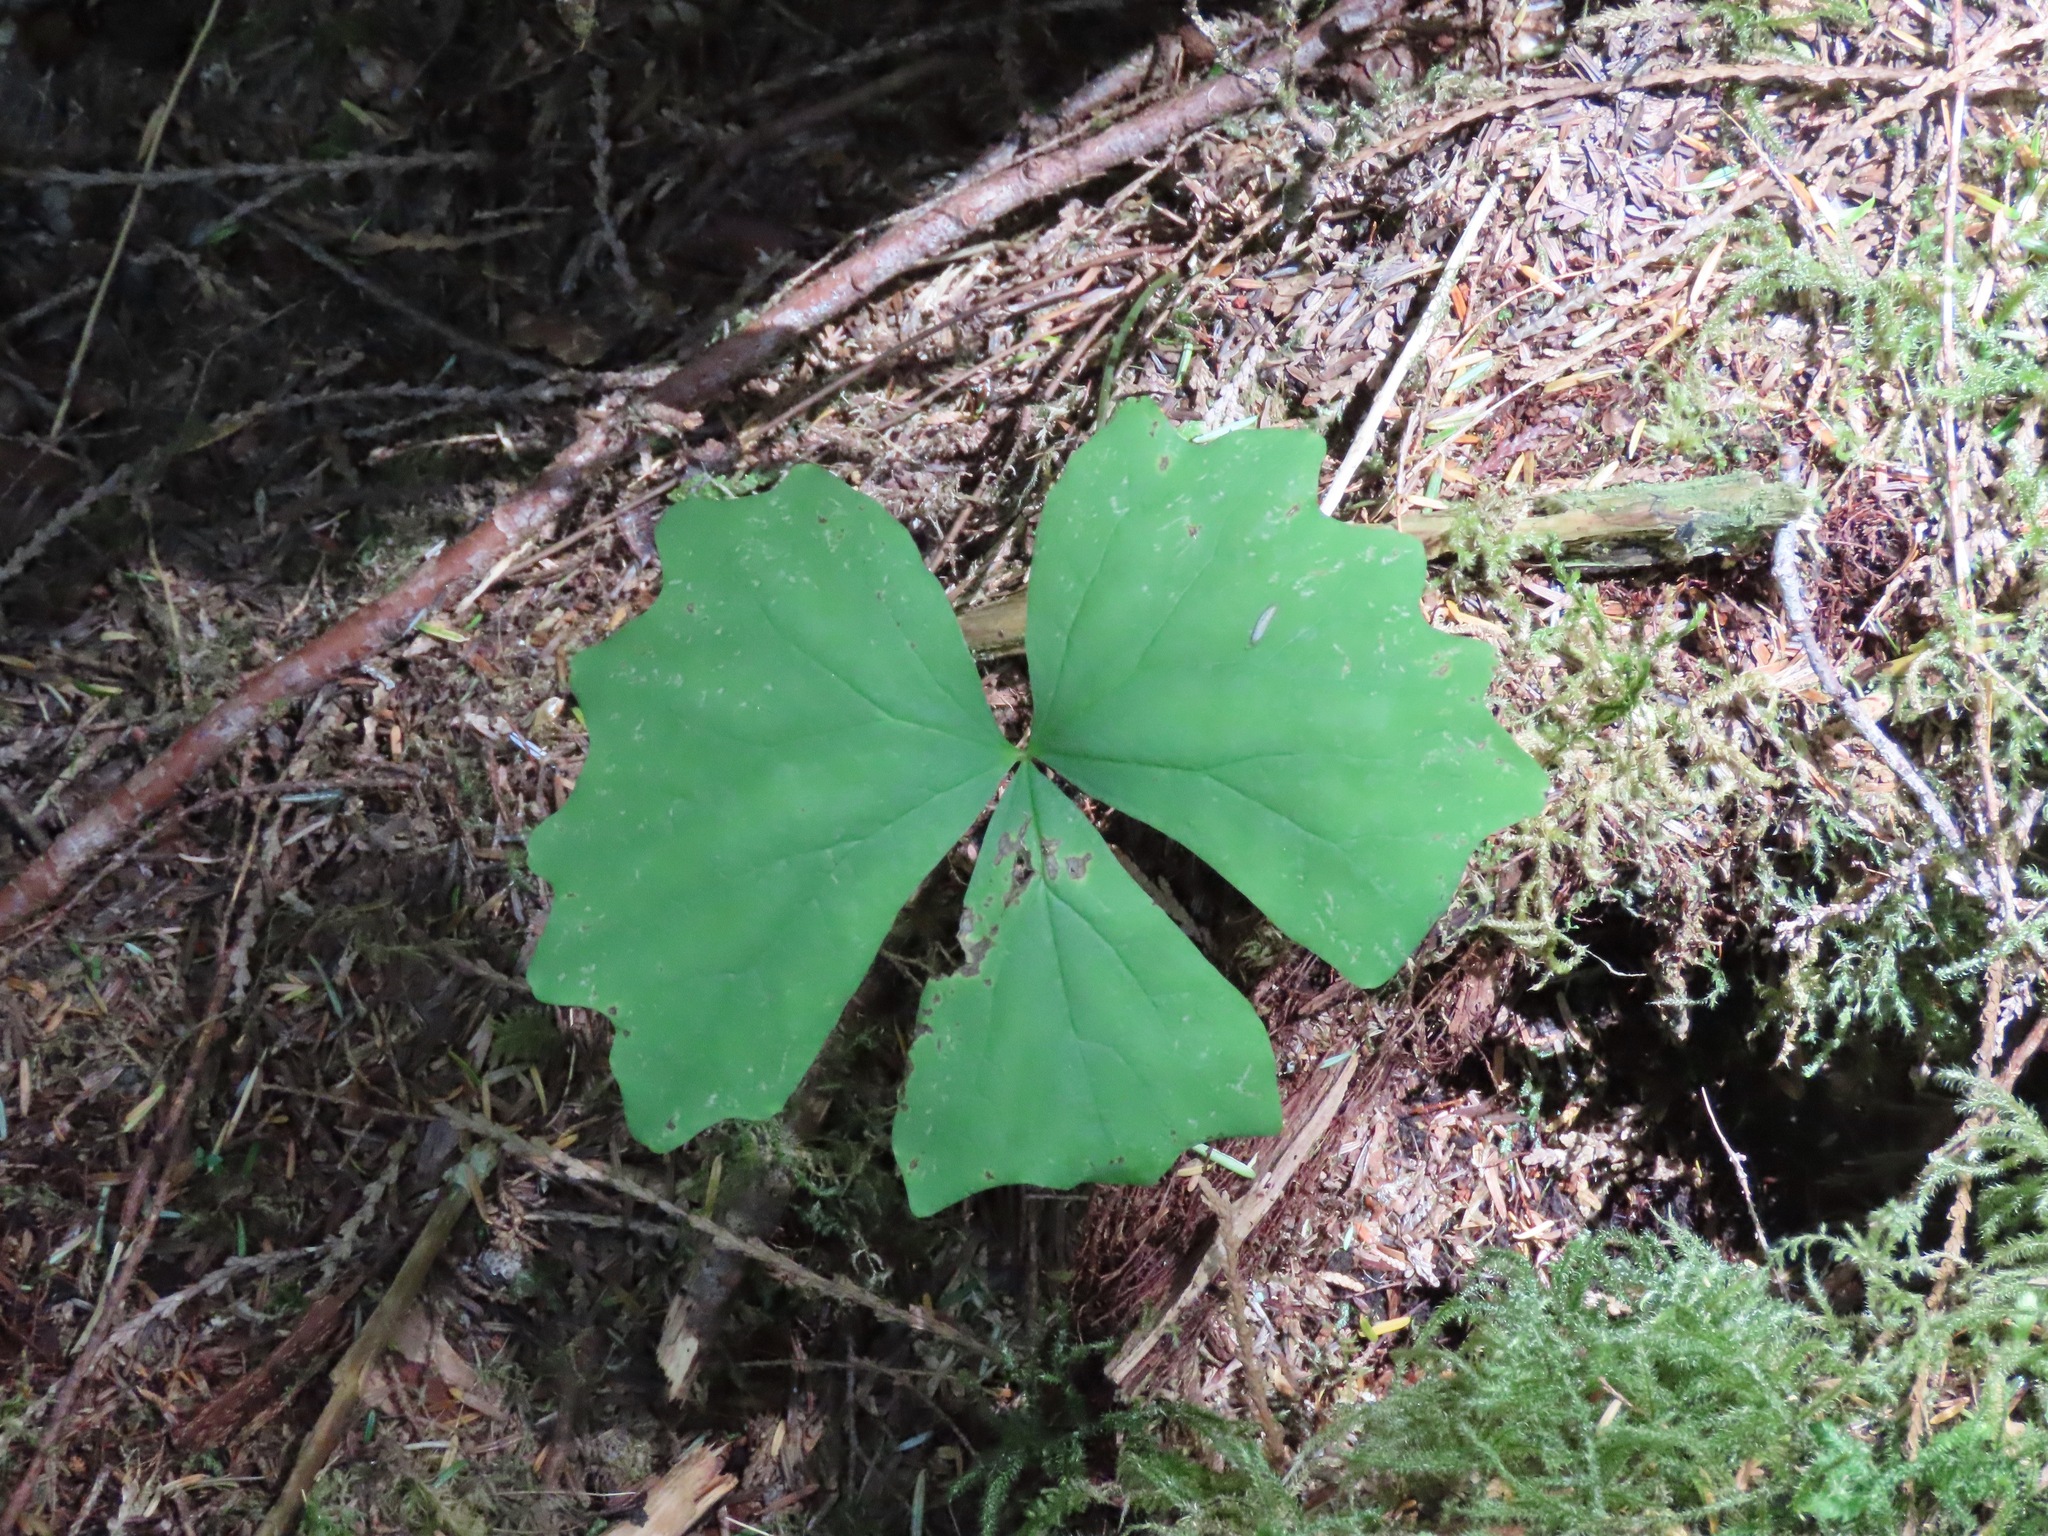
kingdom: Plantae
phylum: Tracheophyta
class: Magnoliopsida
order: Ranunculales
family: Berberidaceae
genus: Achlys
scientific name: Achlys triphylla
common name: Vanilla-leaf
